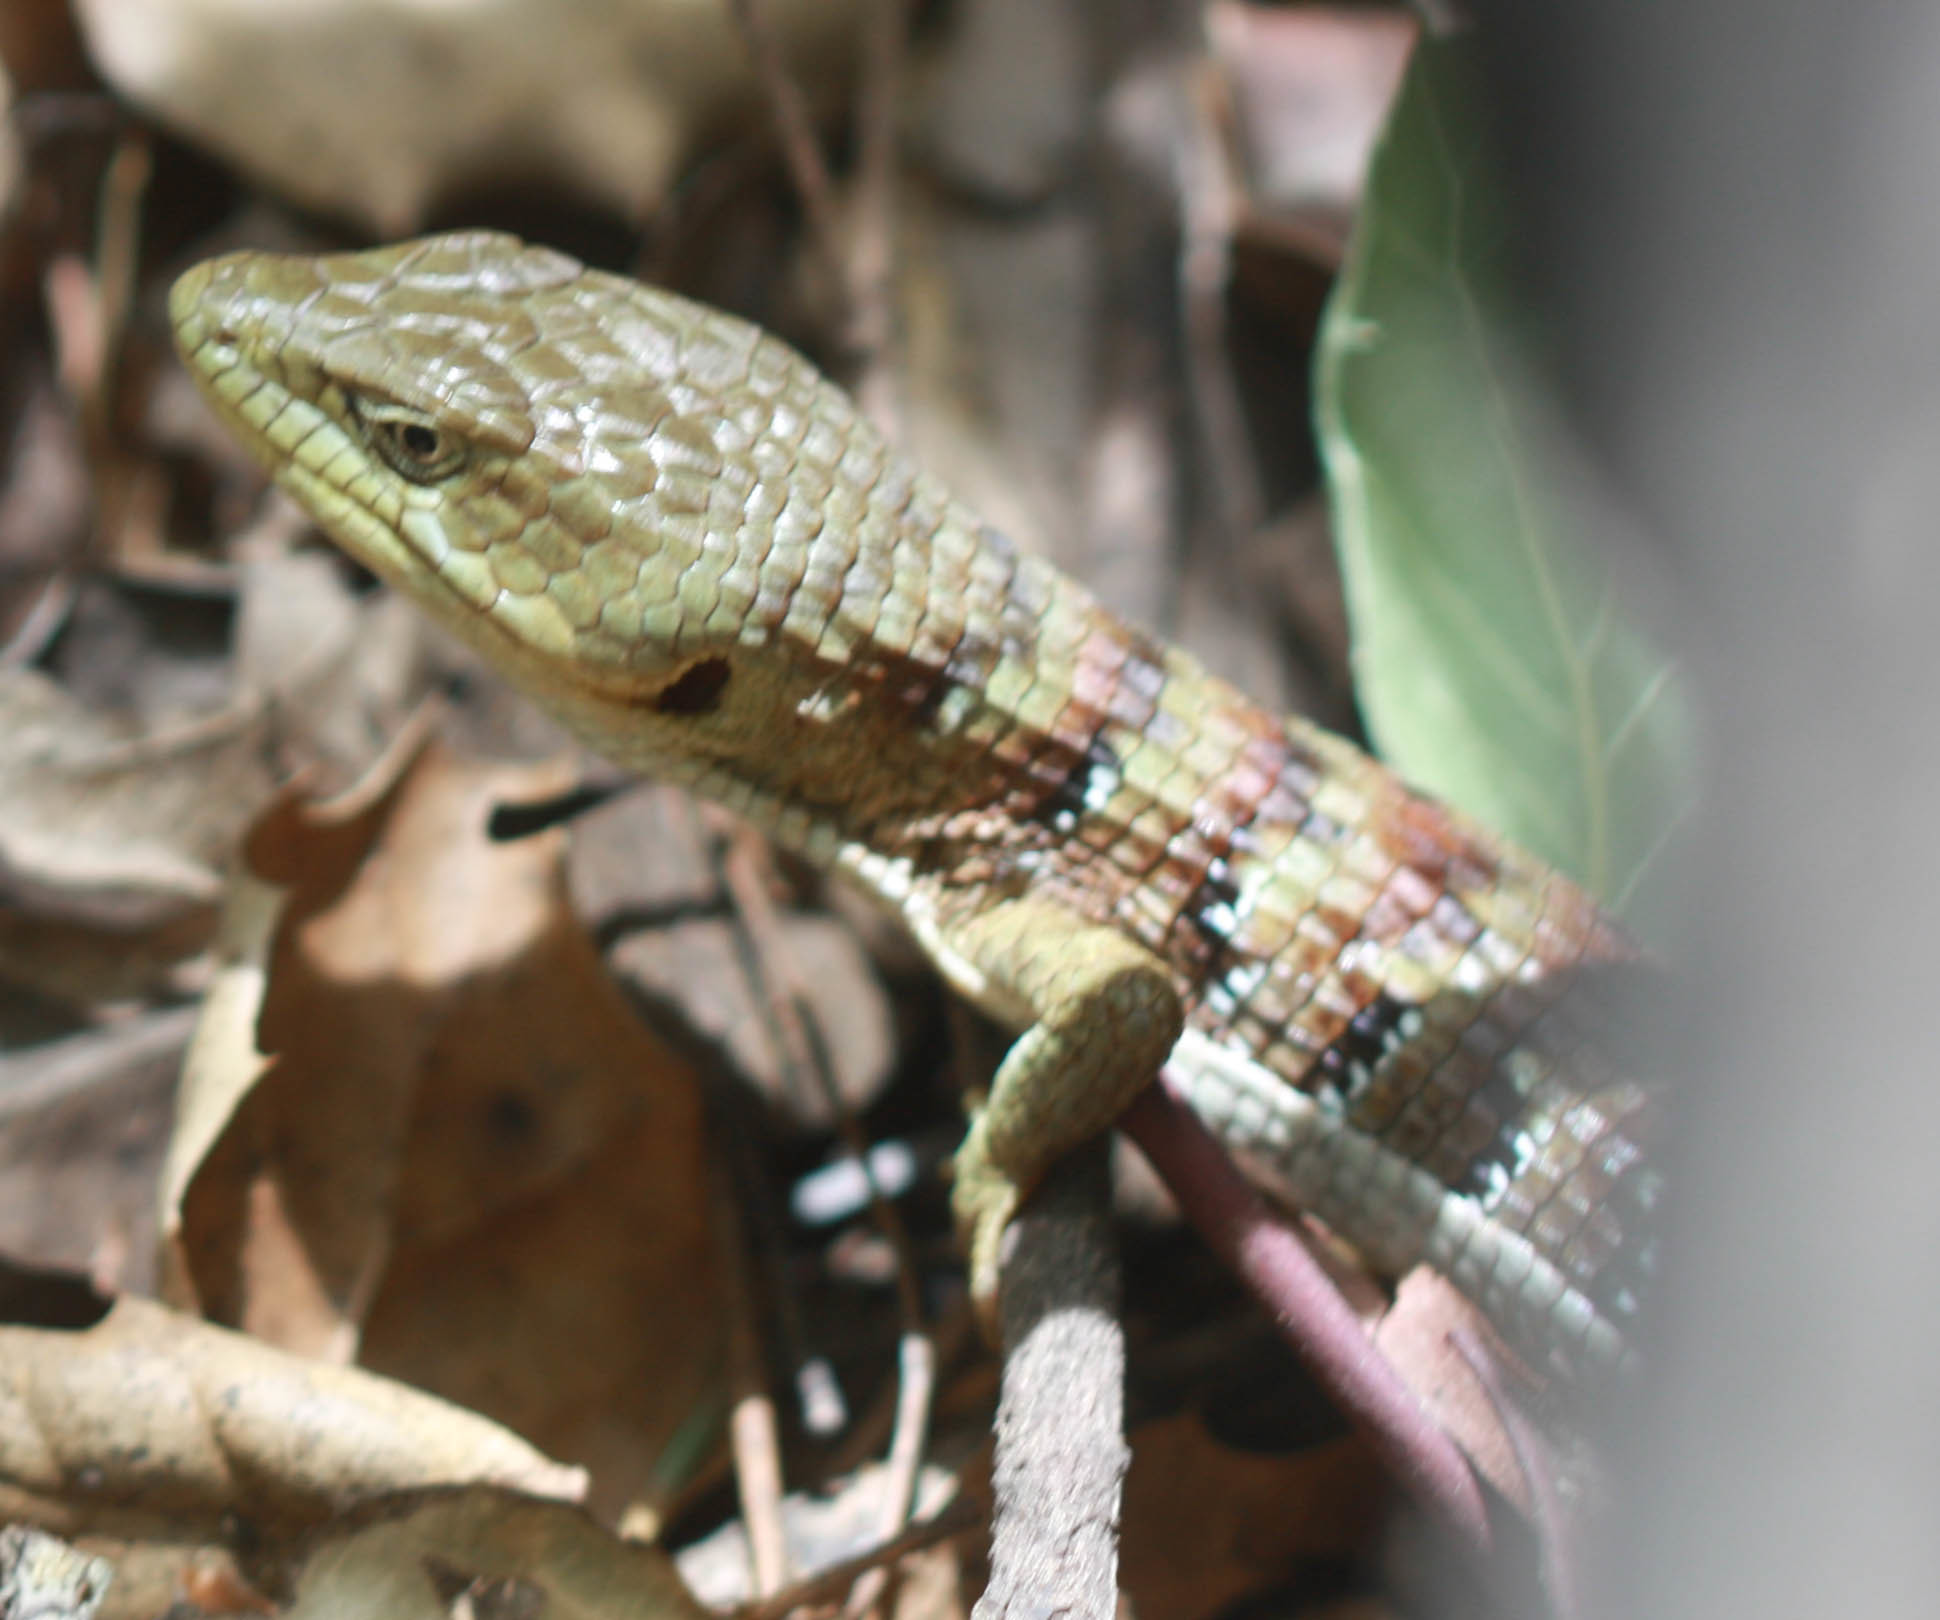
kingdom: Animalia
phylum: Chordata
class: Squamata
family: Anguidae
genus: Elgaria
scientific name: Elgaria multicarinata
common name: Southern alligator lizard
